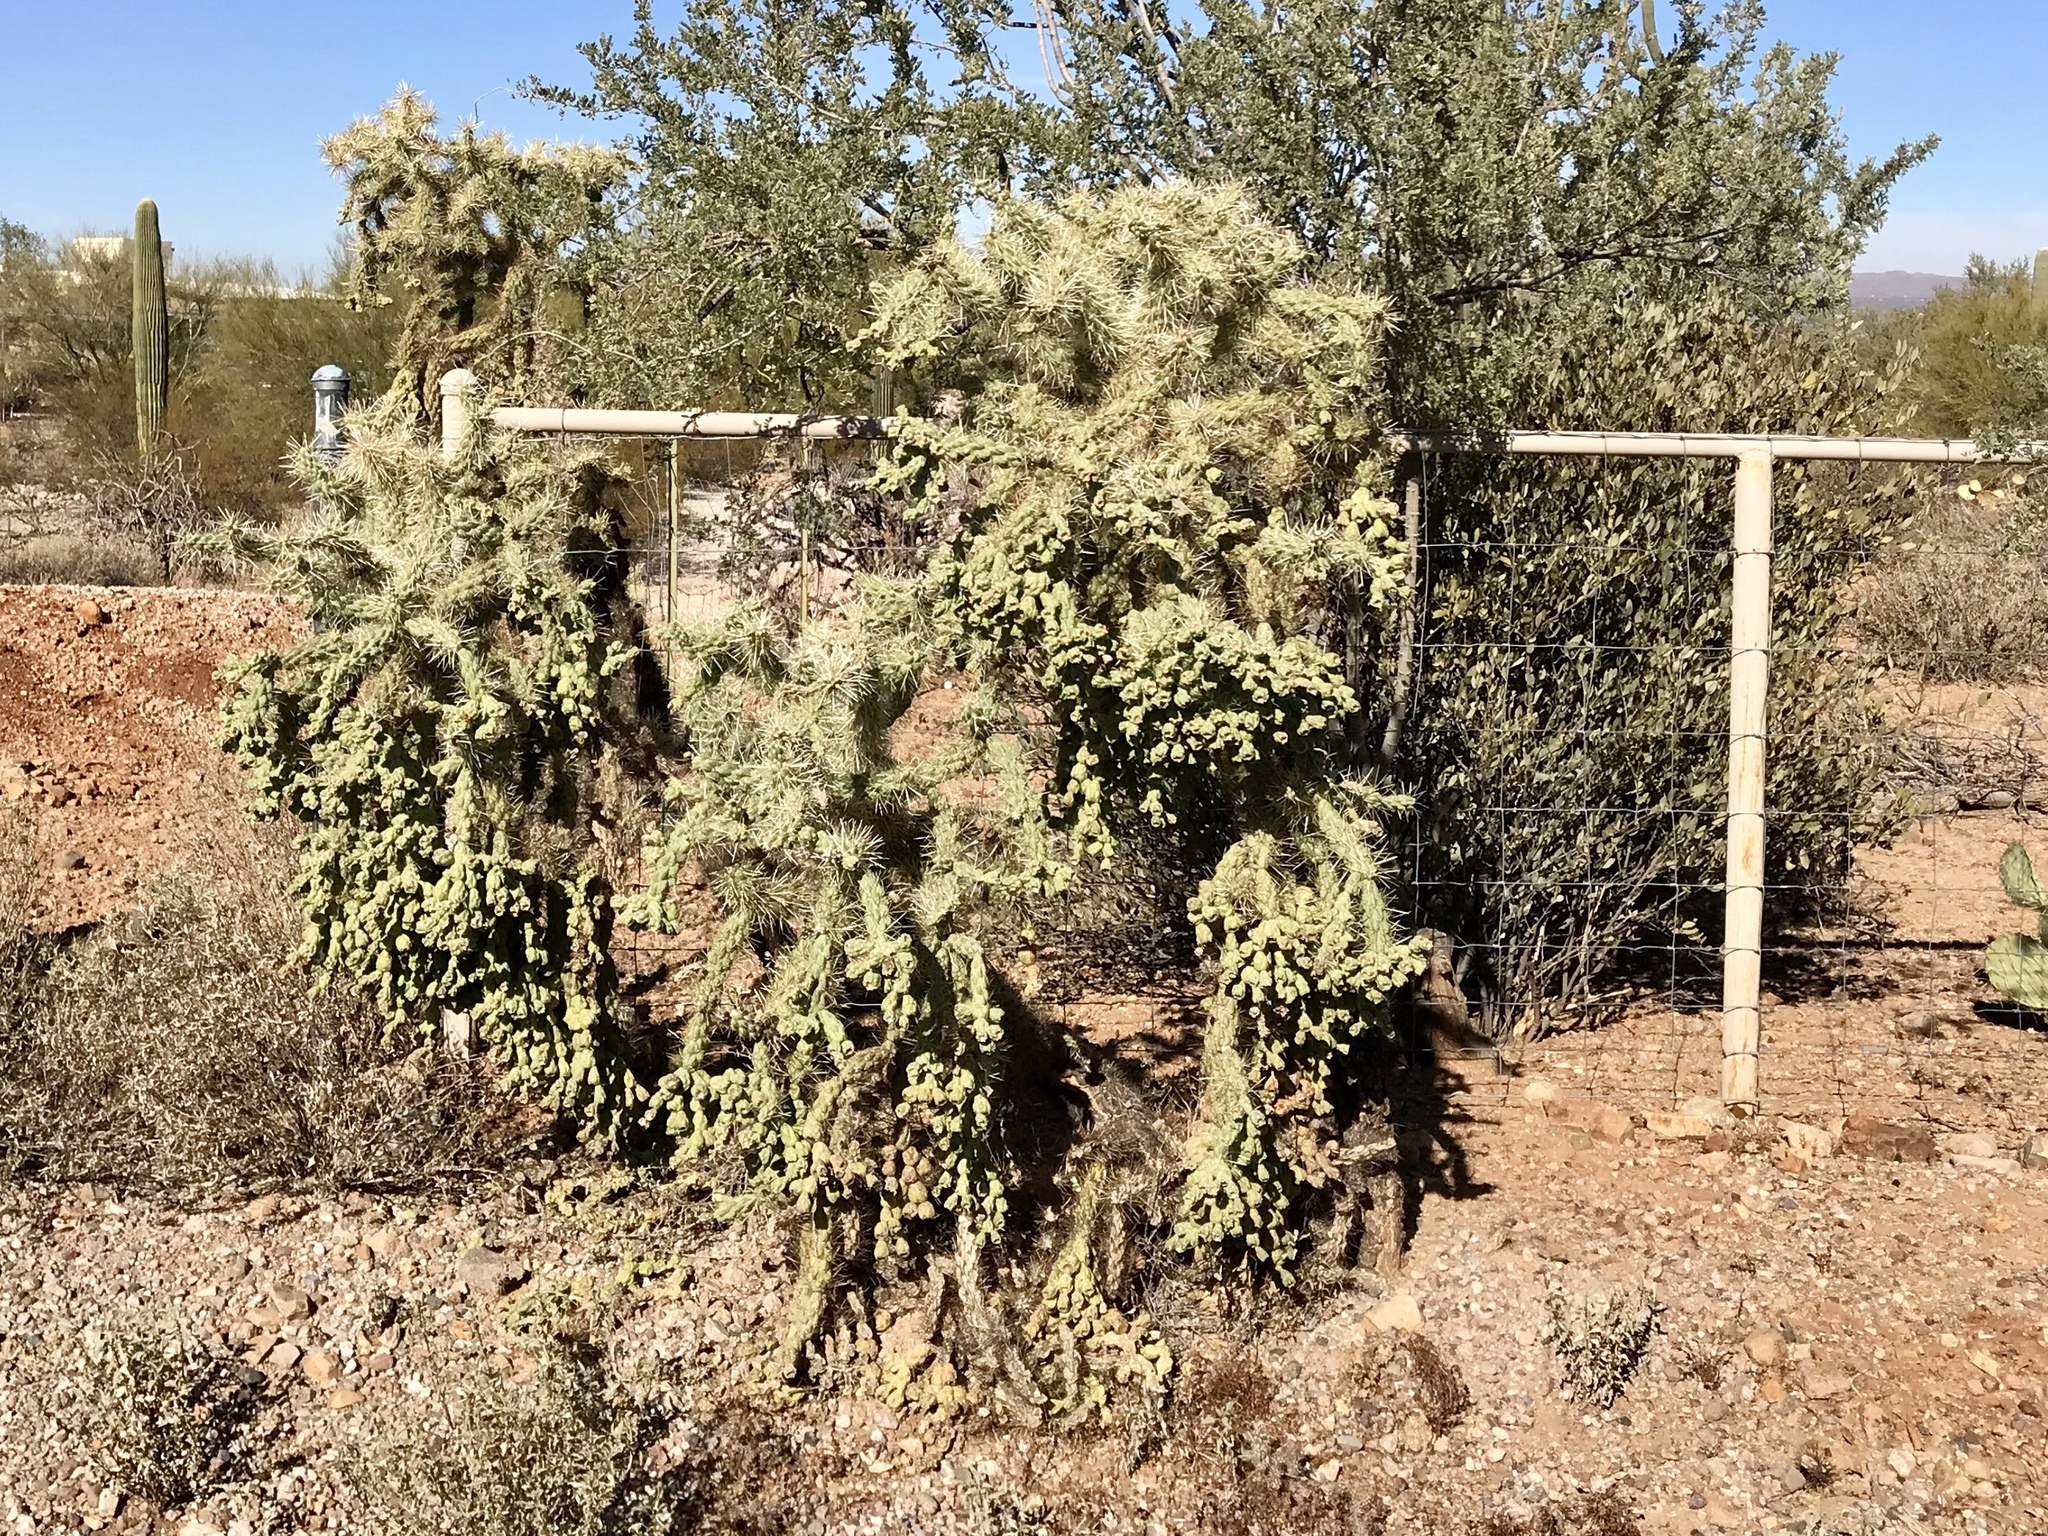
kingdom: Plantae
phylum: Tracheophyta
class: Magnoliopsida
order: Caryophyllales
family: Cactaceae
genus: Cylindropuntia
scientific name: Cylindropuntia fulgida
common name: Jumping cholla
